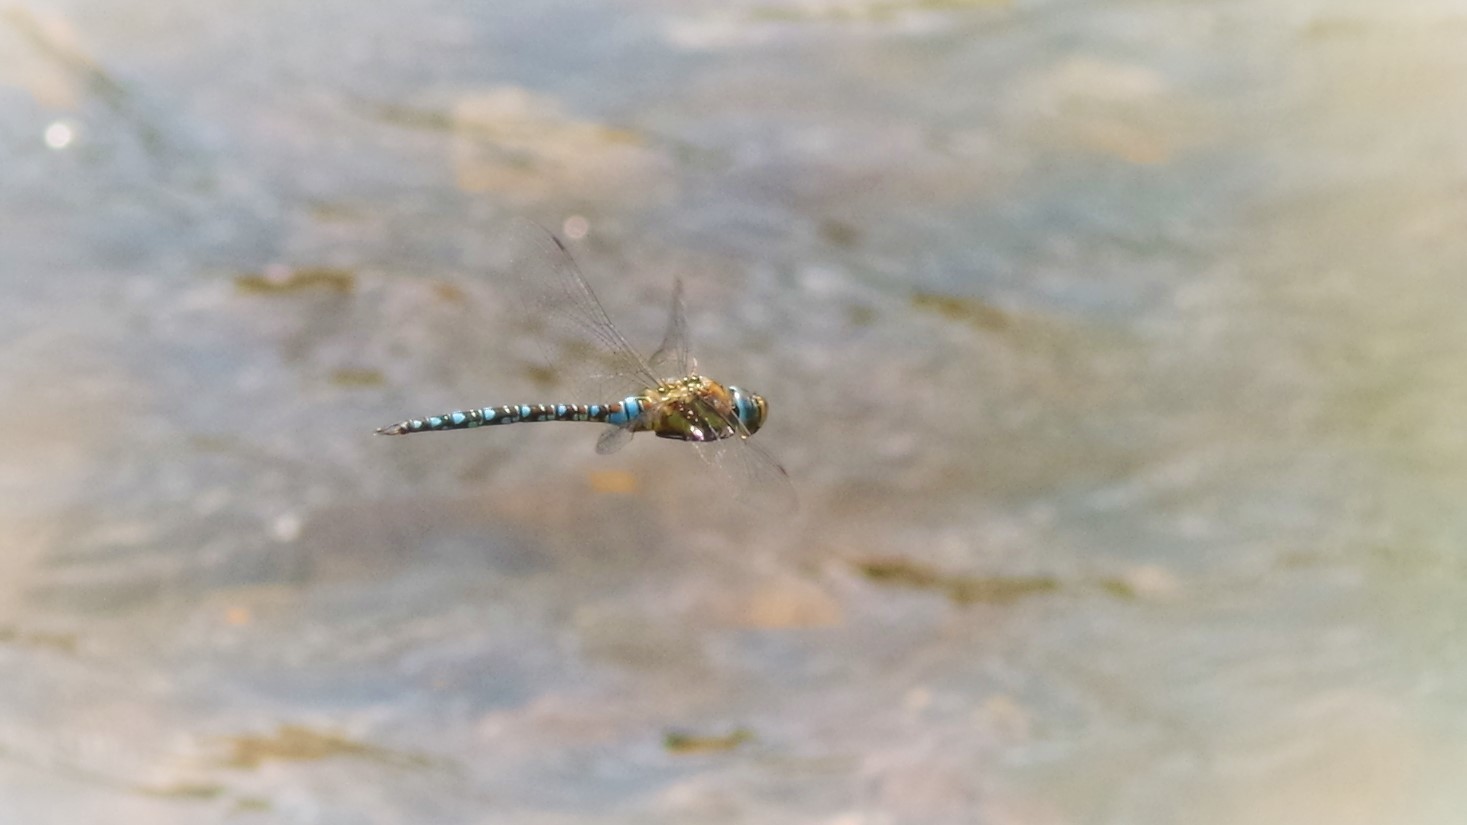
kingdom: Animalia
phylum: Arthropoda
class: Insecta
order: Odonata
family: Aeshnidae
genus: Aeshna
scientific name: Aeshna mixta
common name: Migrant hawker
